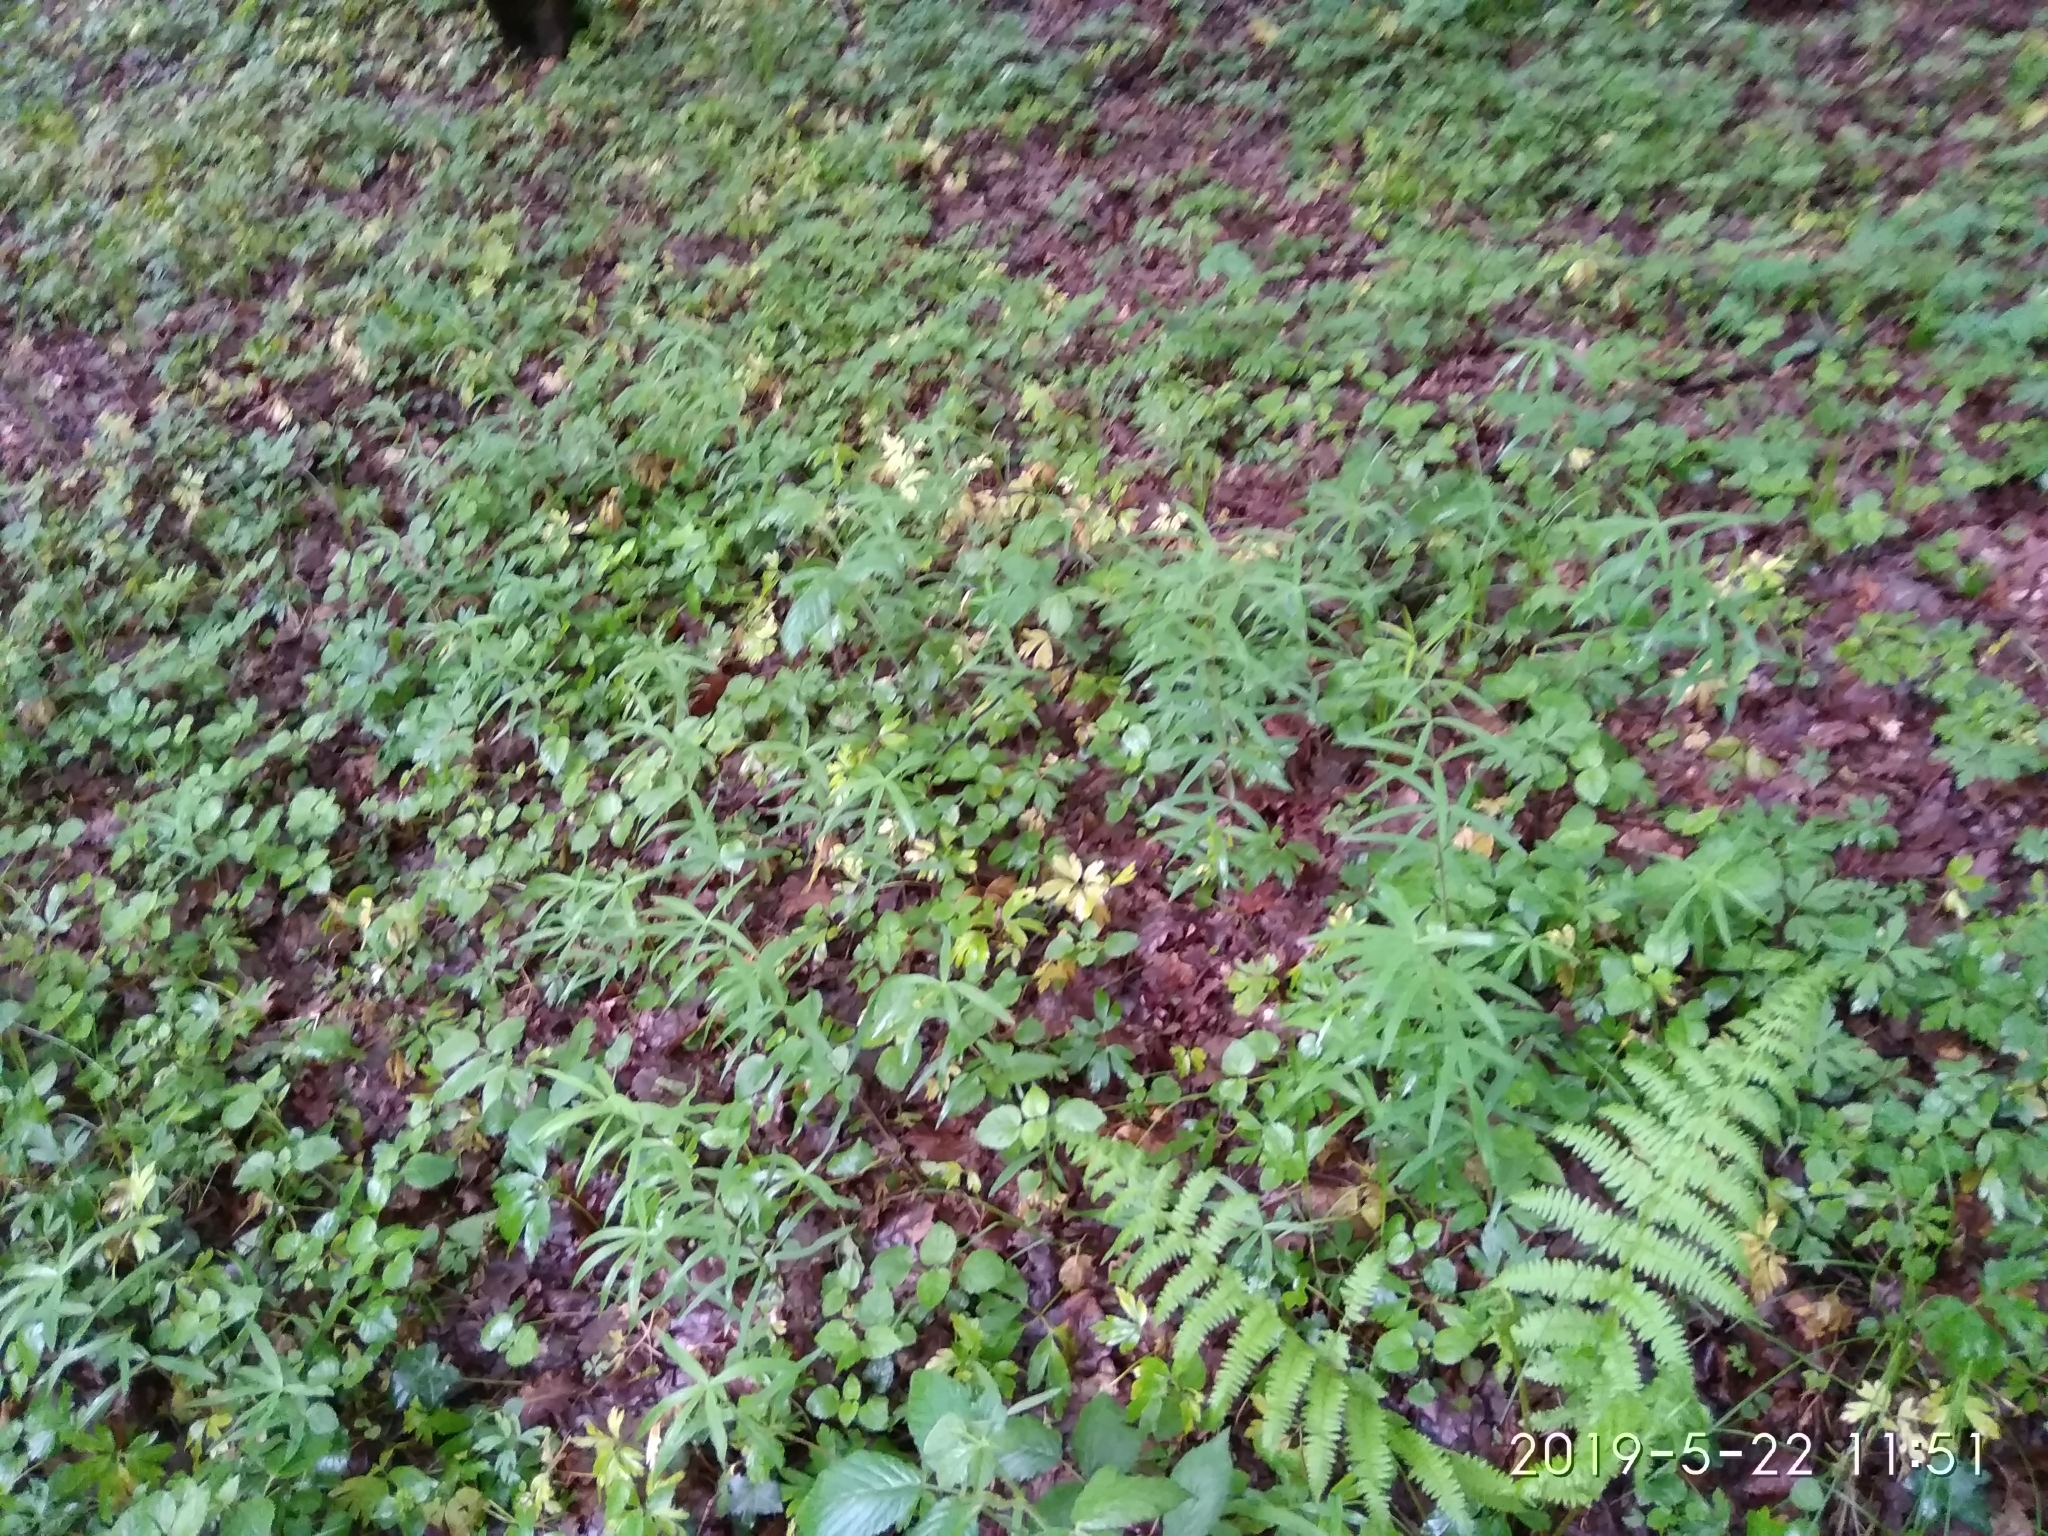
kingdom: Plantae
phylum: Tracheophyta
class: Liliopsida
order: Asparagales
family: Asparagaceae
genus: Polygonatum
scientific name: Polygonatum verticillatum
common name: Whorled solomon's-seal
